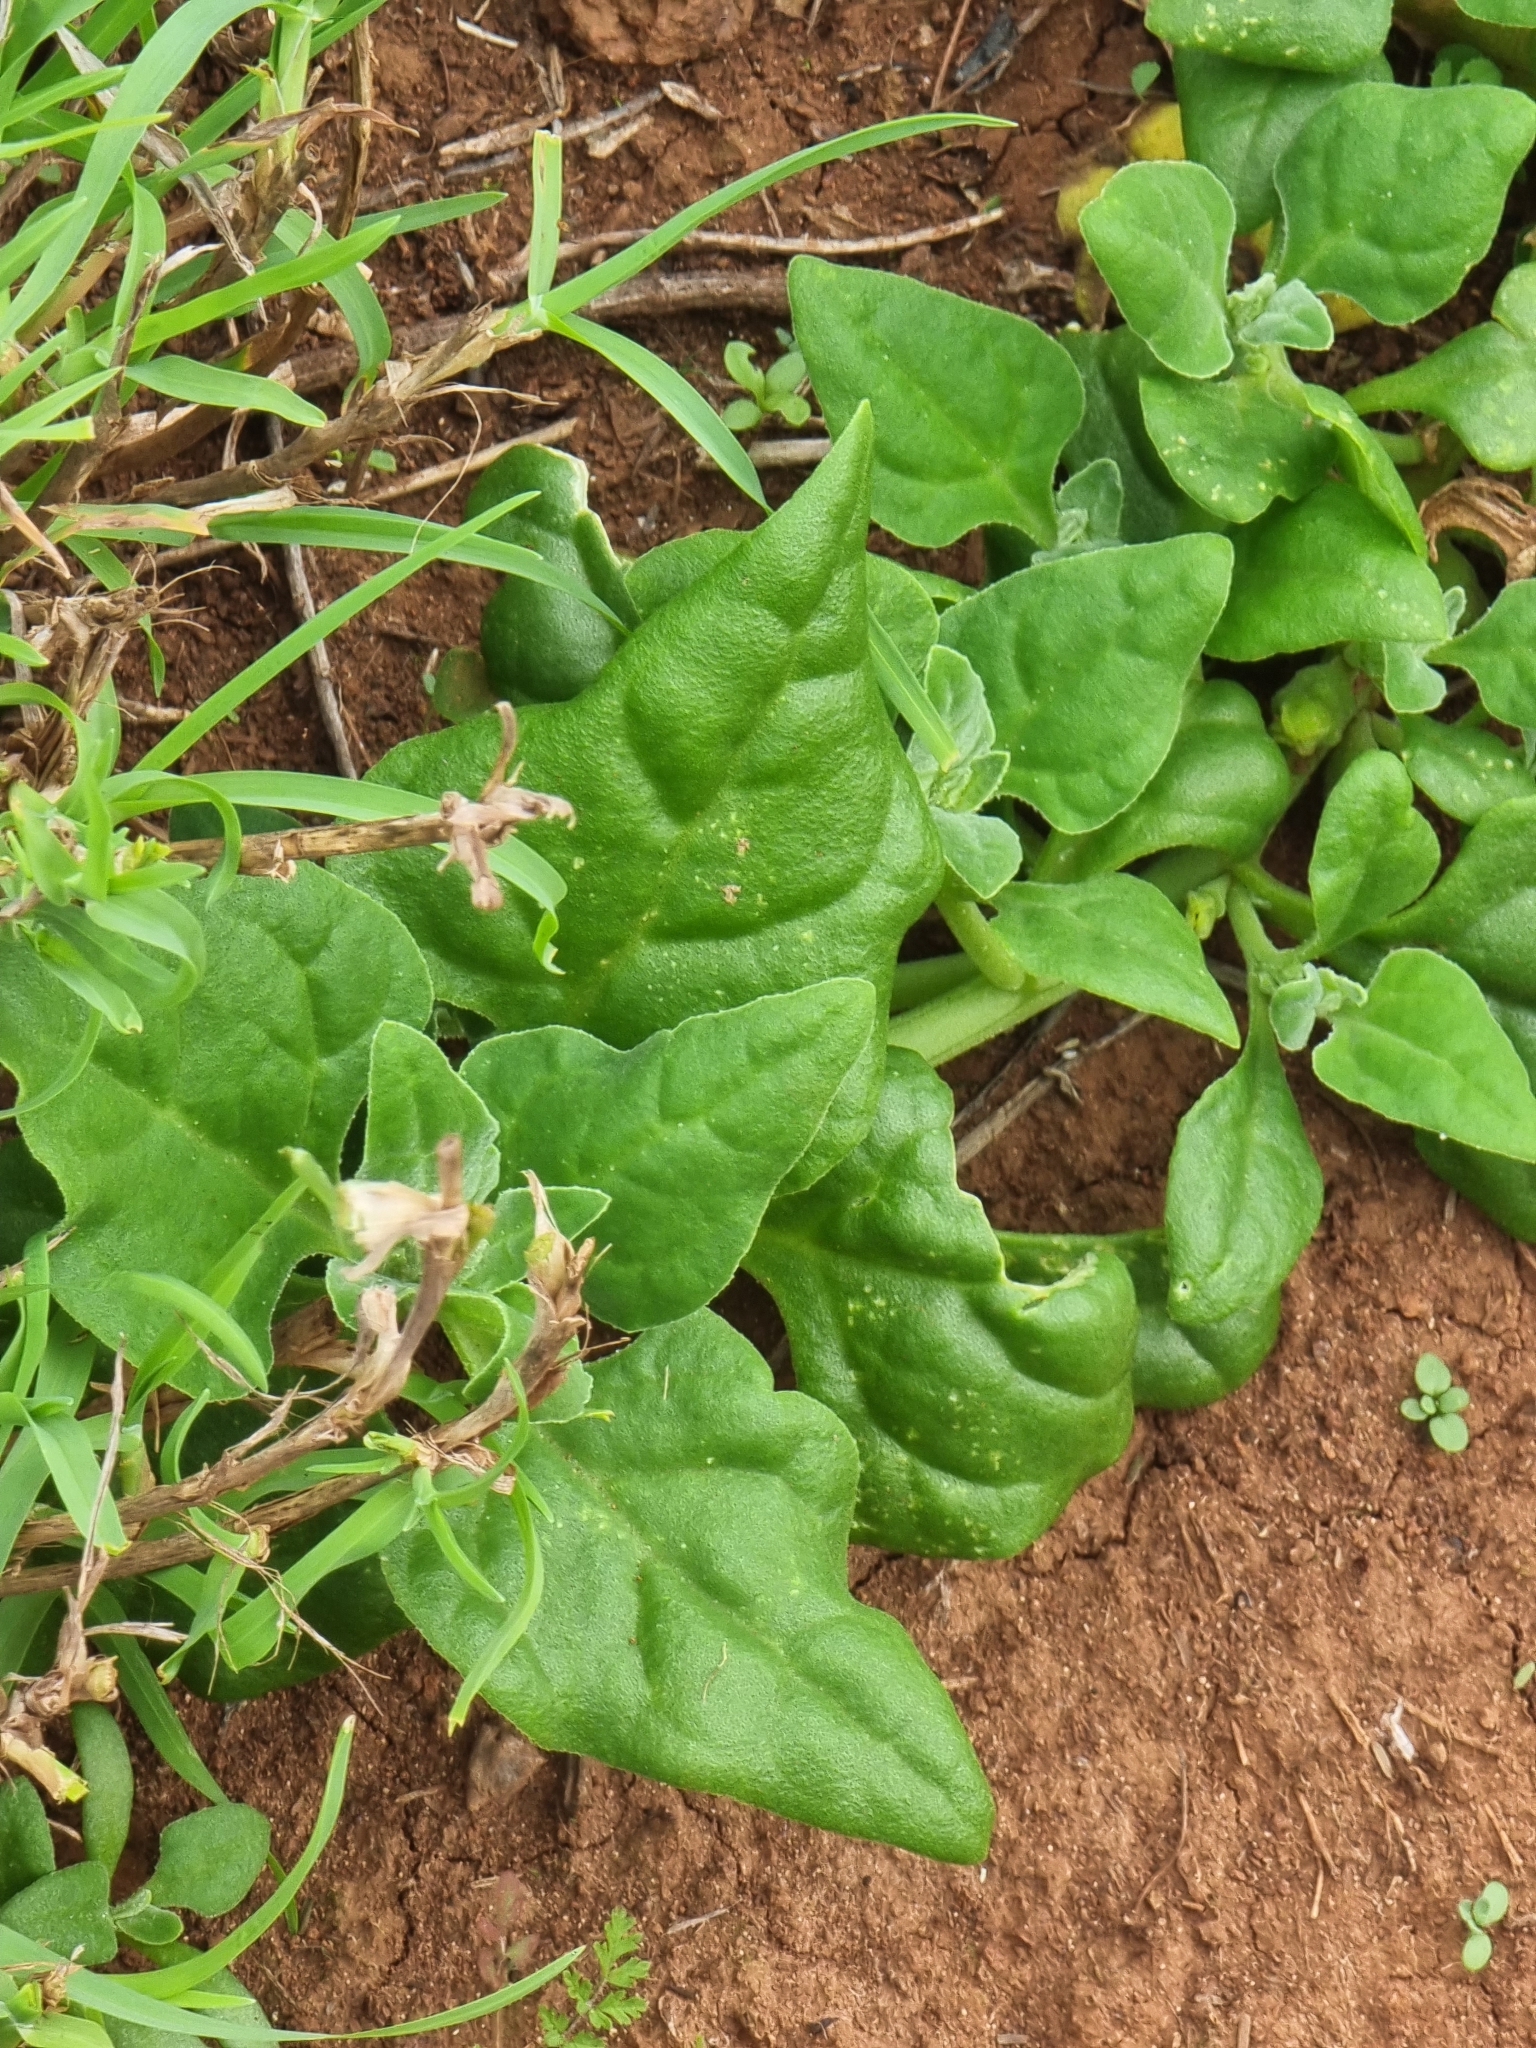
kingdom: Plantae
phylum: Tracheophyta
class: Magnoliopsida
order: Caryophyllales
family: Aizoaceae
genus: Tetragonia
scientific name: Tetragonia tetragonoides
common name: New zealand-spinach
